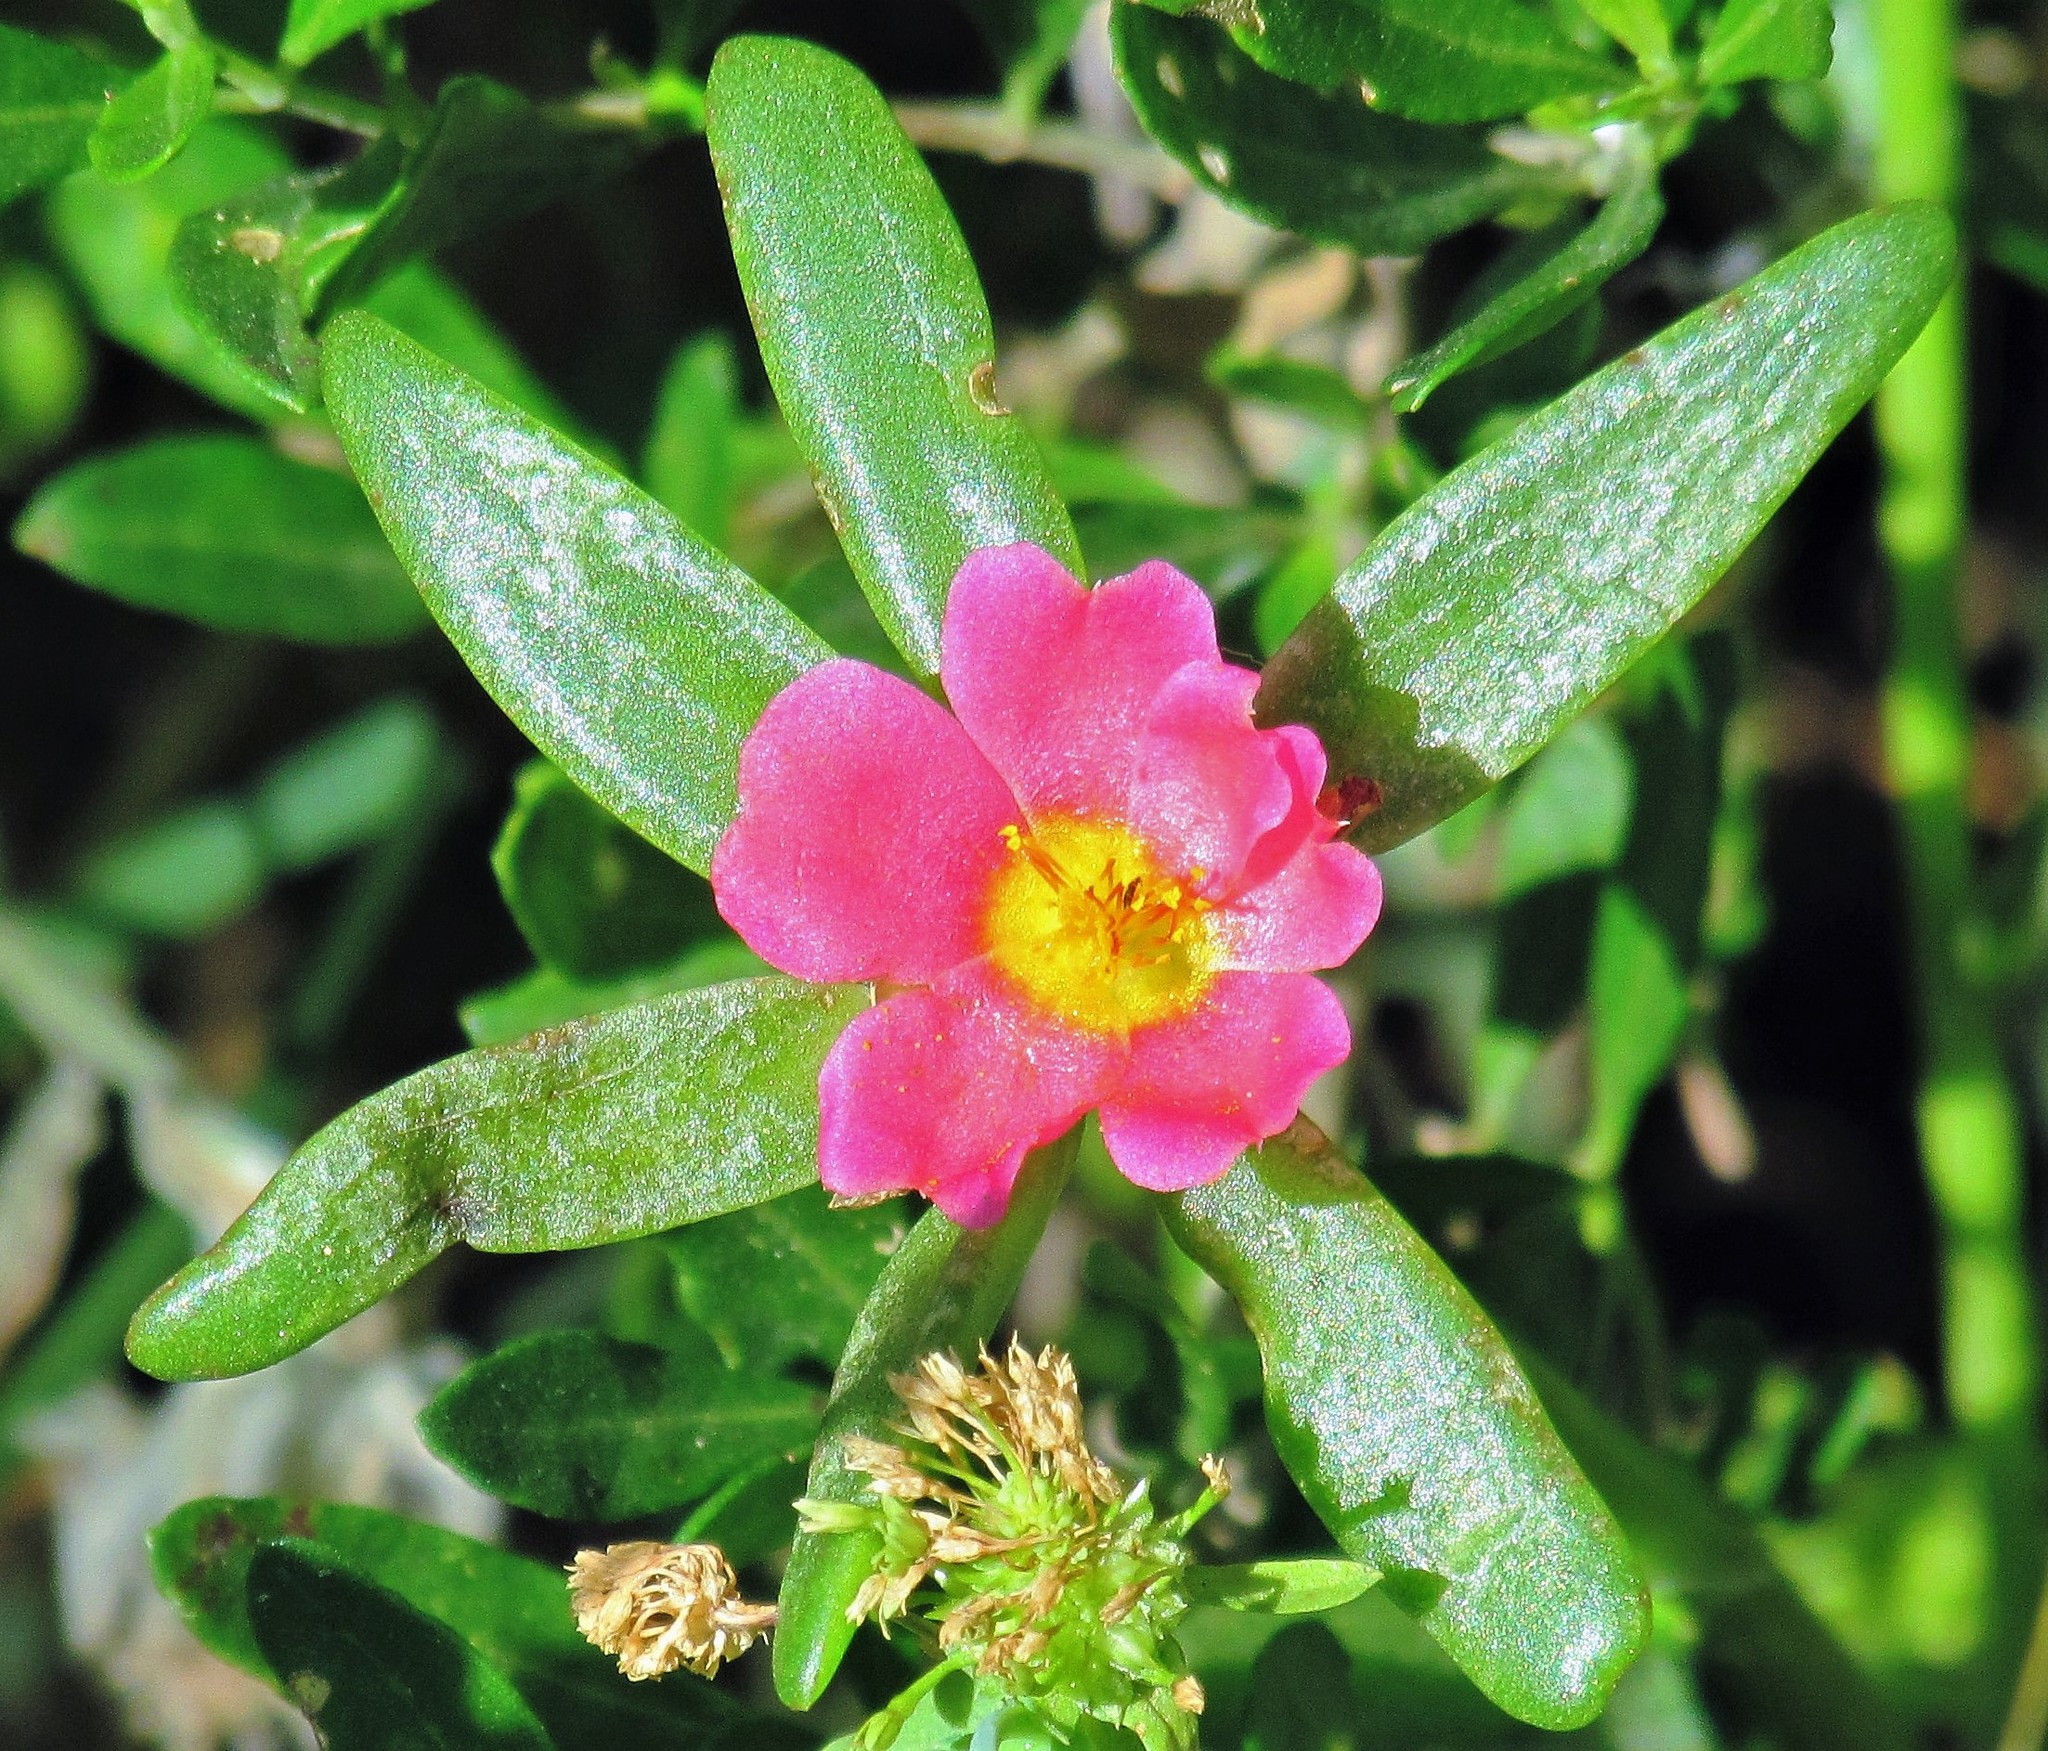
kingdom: Plantae
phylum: Tracheophyta
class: Magnoliopsida
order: Caryophyllales
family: Portulacaceae
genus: Portulaca
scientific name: Portulaca cryptopetala
